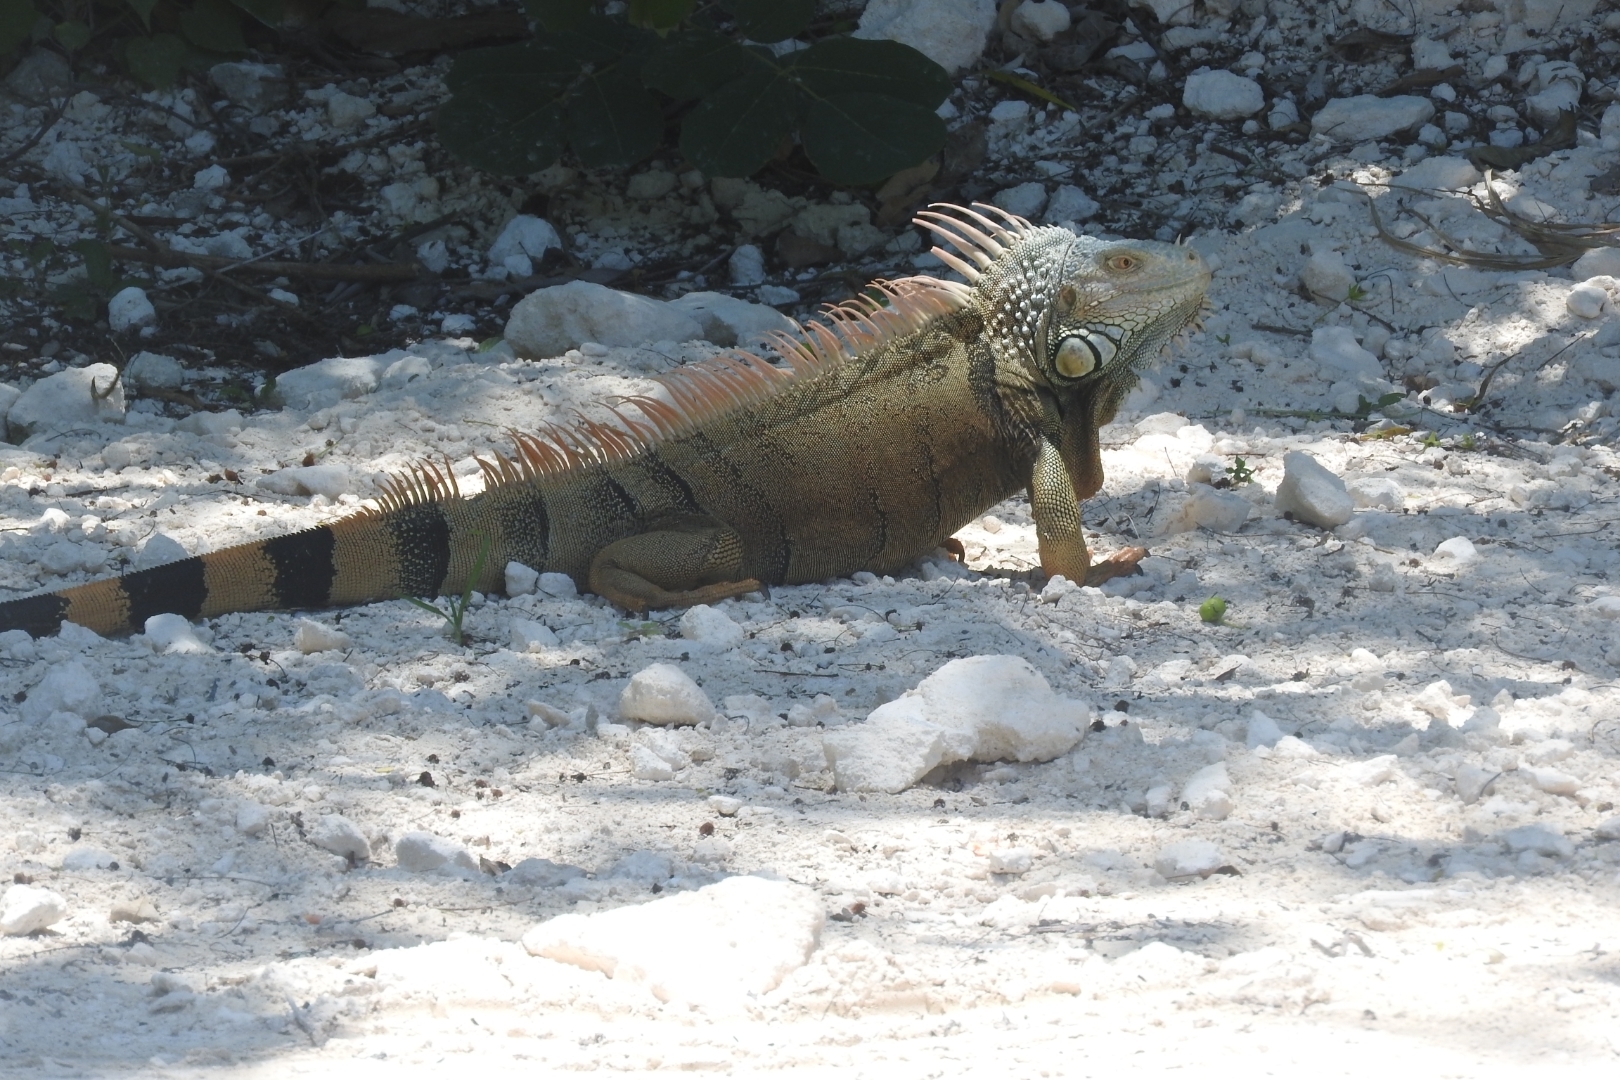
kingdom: Animalia
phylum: Chordata
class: Squamata
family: Iguanidae
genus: Iguana
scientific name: Iguana iguana
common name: Green iguana
